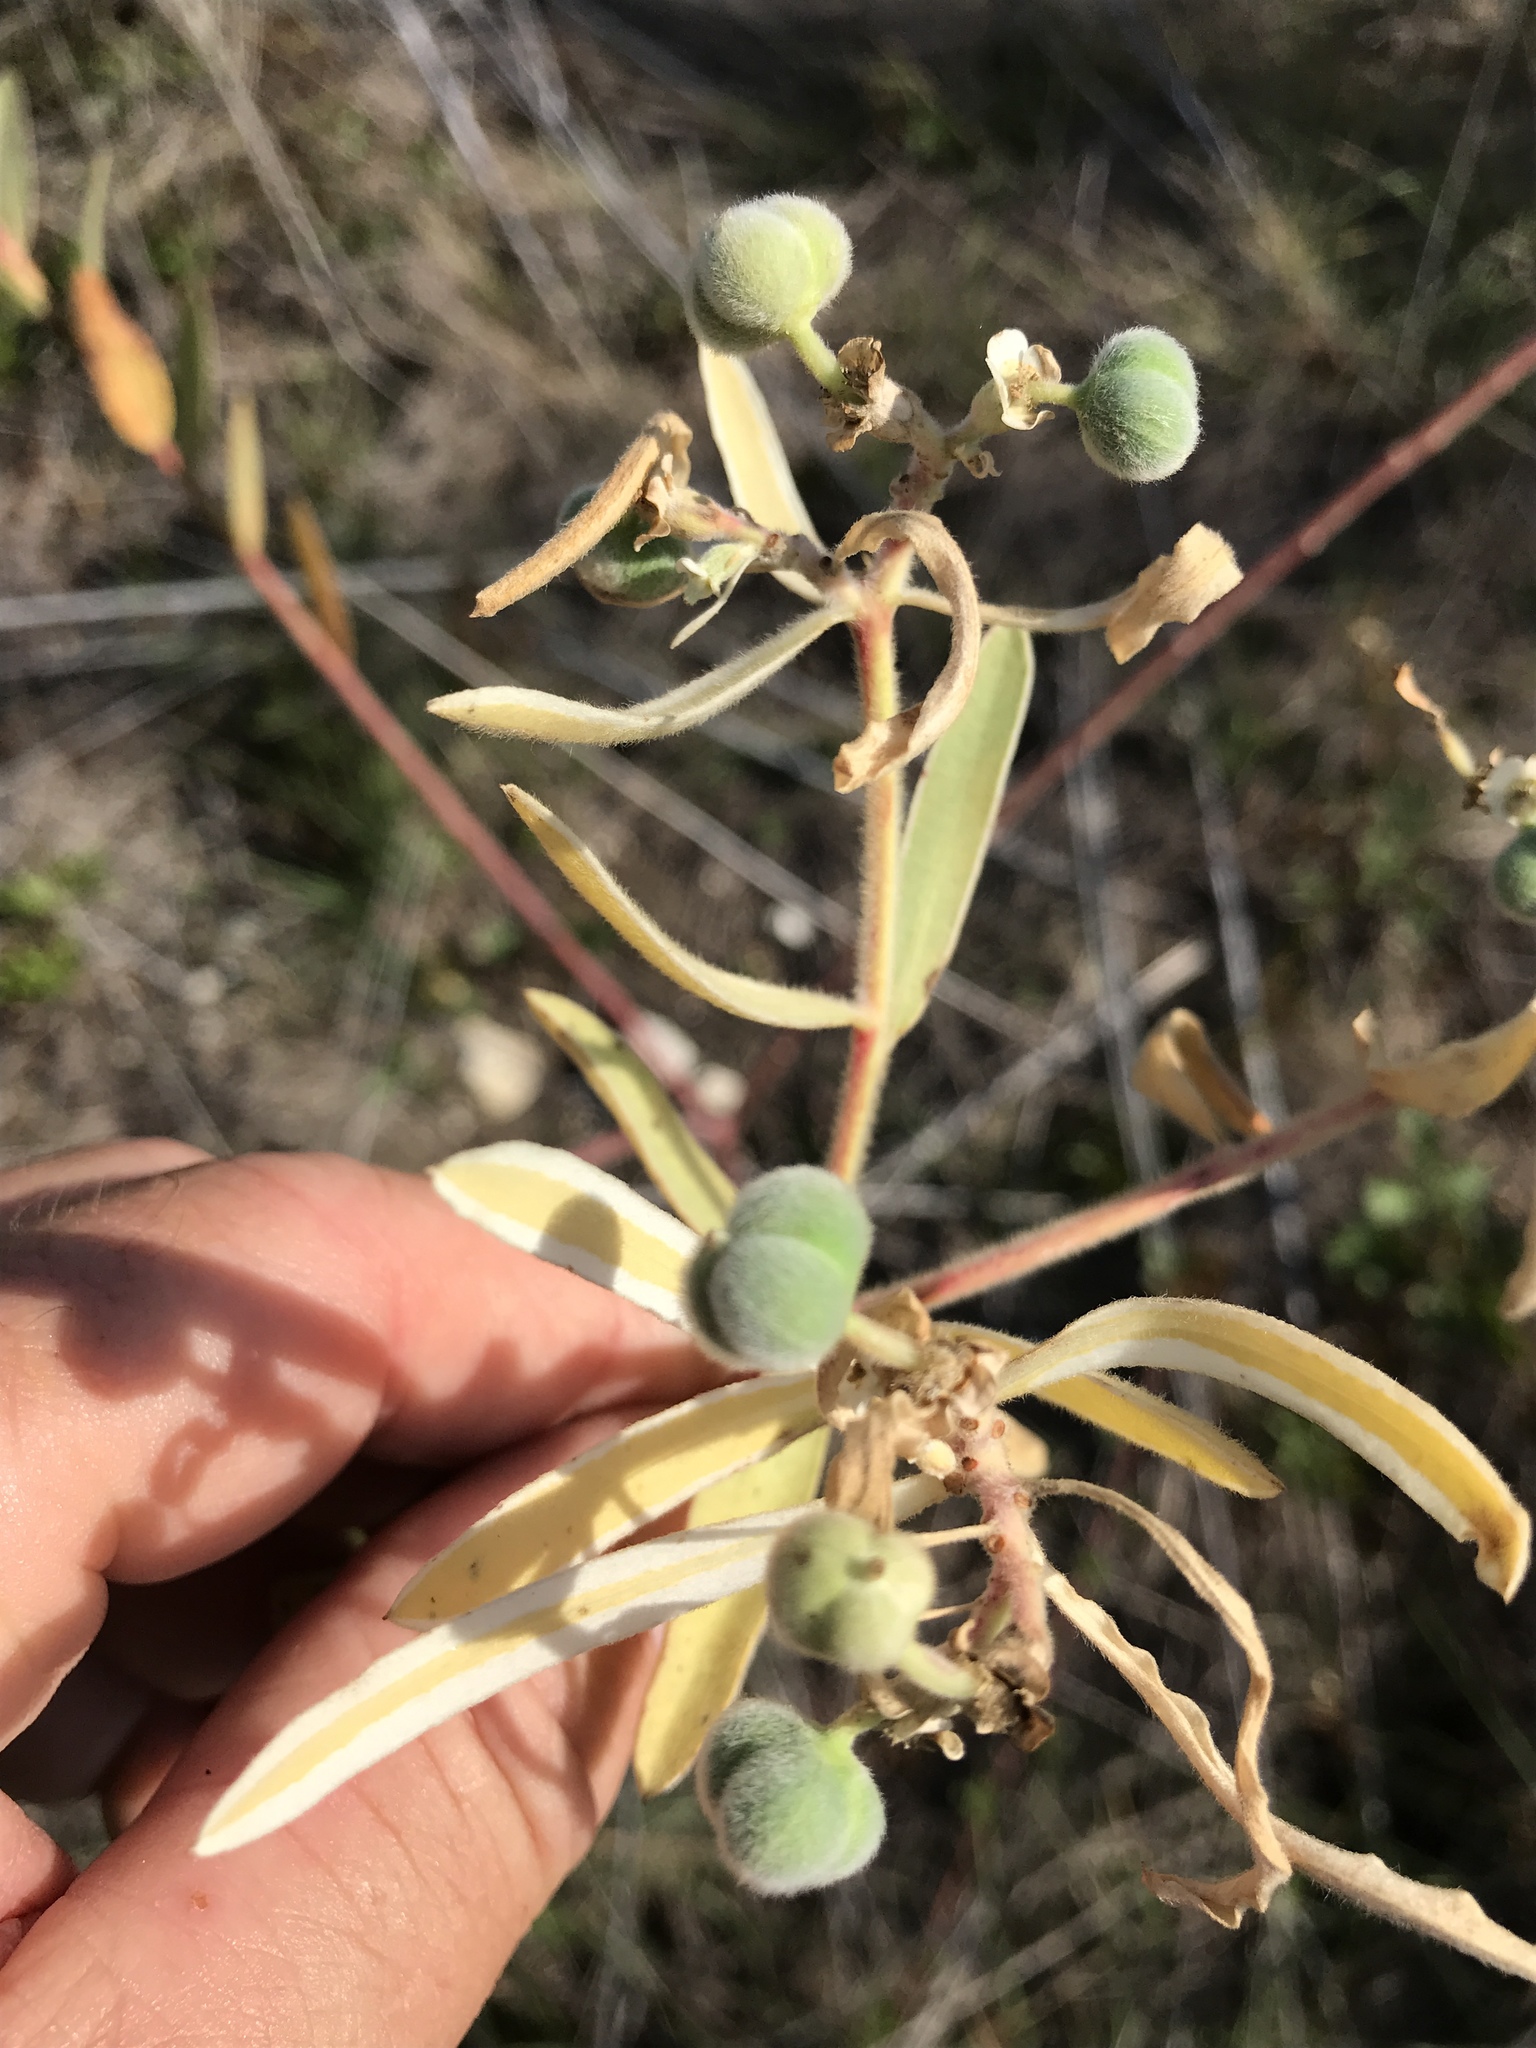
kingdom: Plantae
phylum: Tracheophyta
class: Magnoliopsida
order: Malpighiales
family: Euphorbiaceae
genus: Euphorbia
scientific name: Euphorbia bicolor
